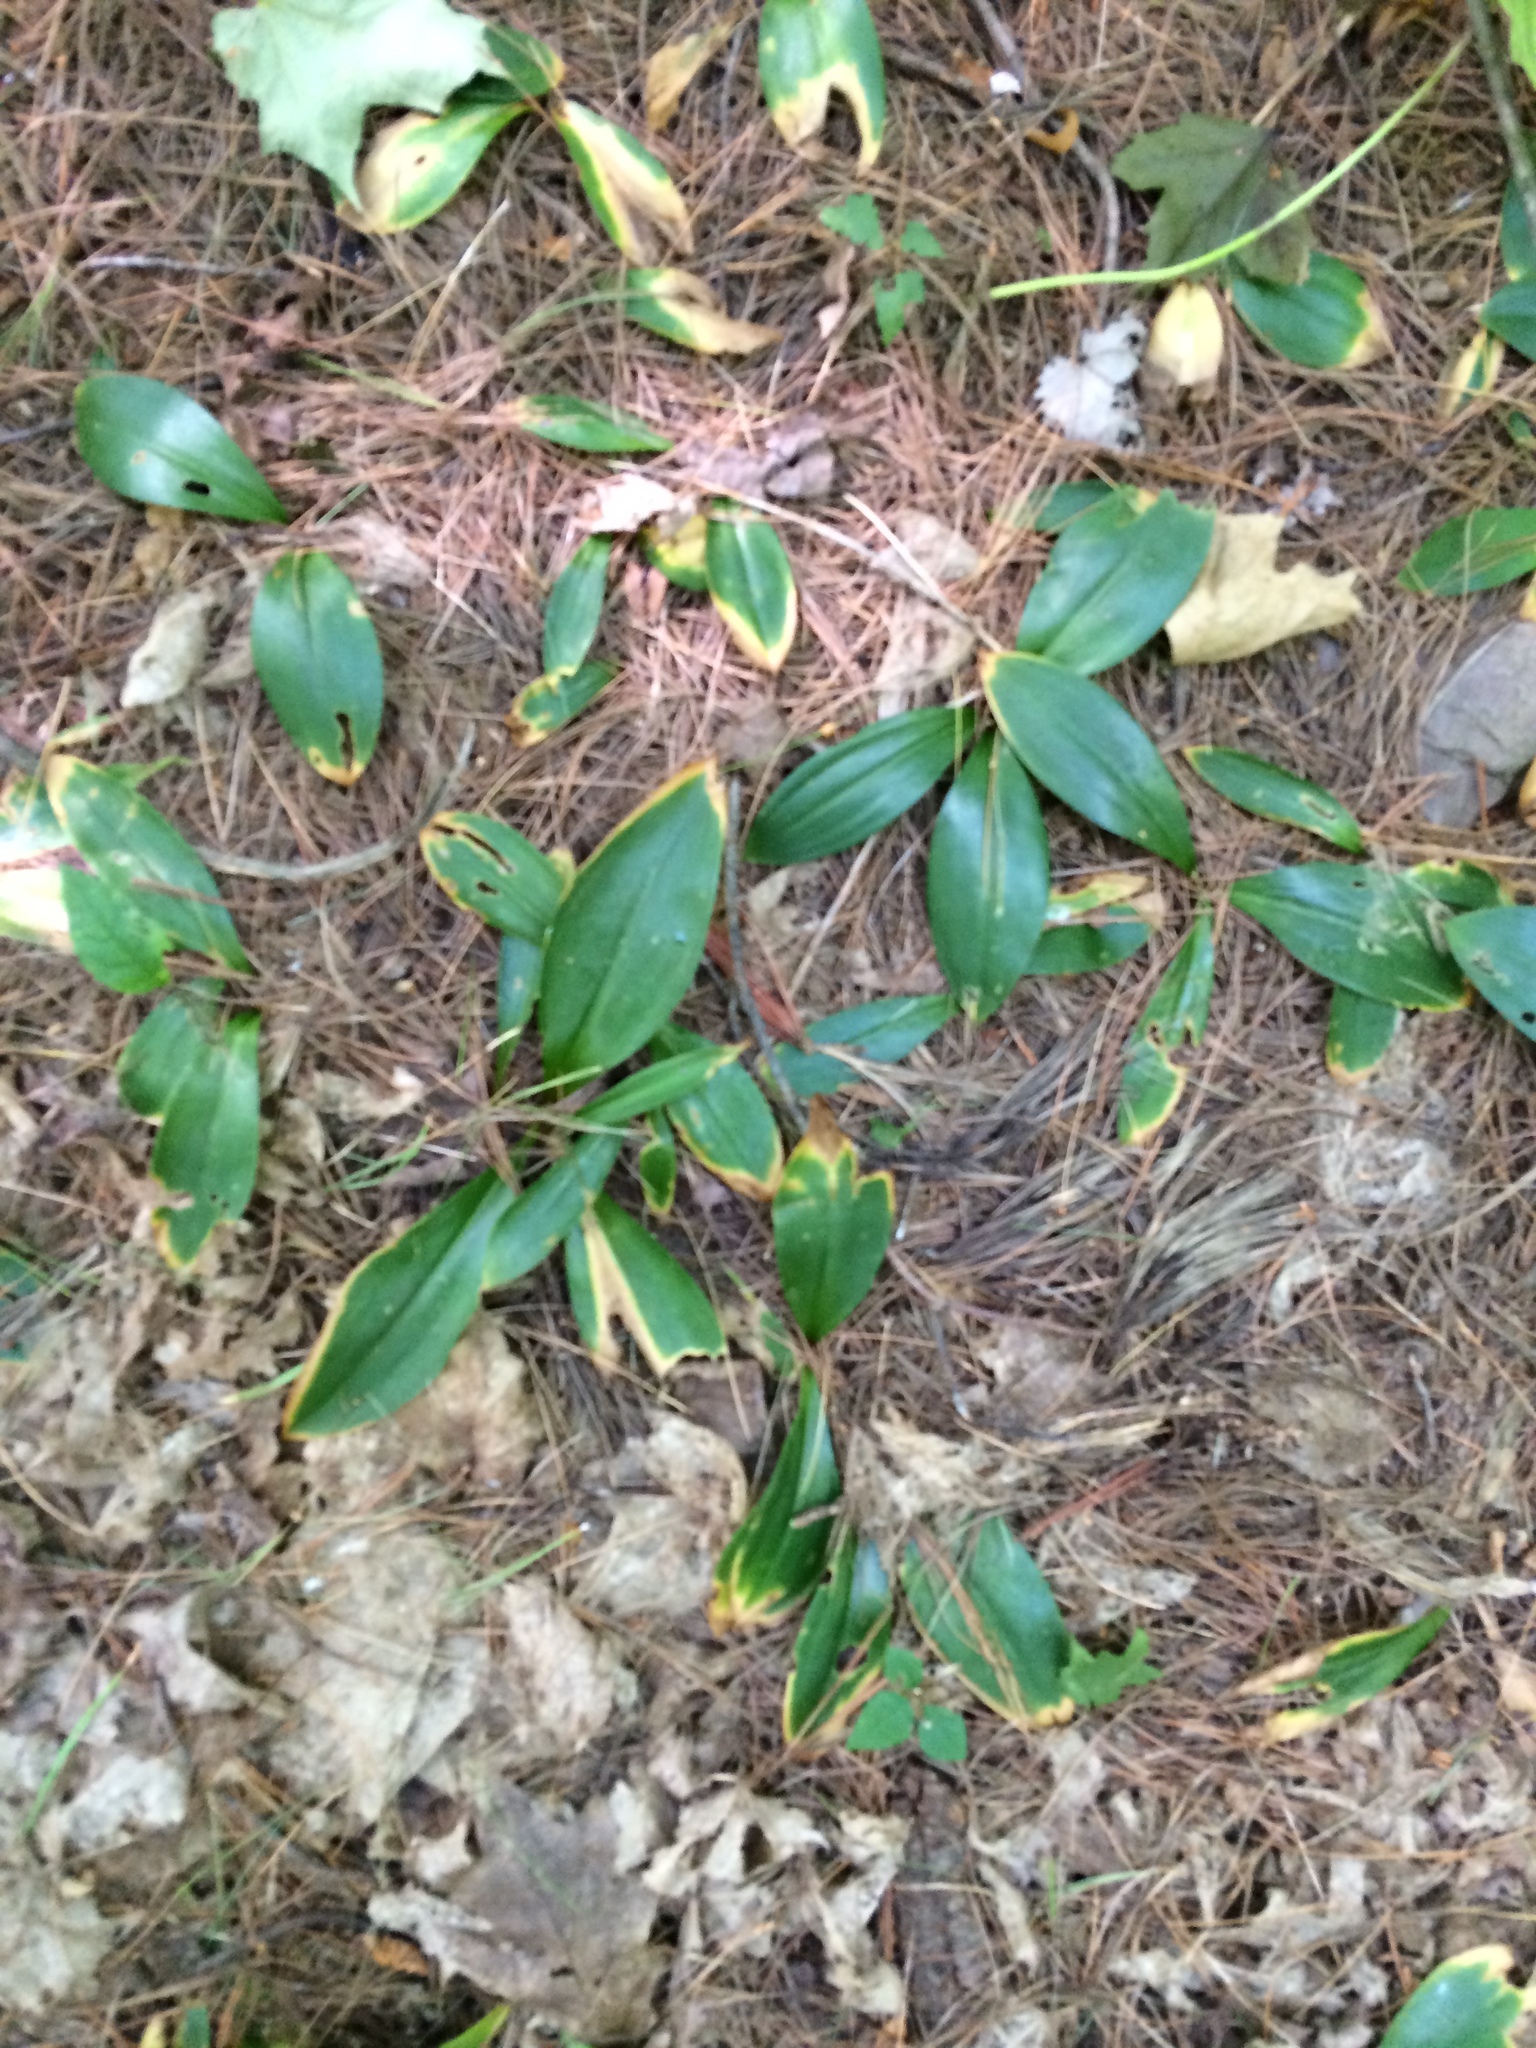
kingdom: Plantae
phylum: Tracheophyta
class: Liliopsida
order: Liliales
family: Liliaceae
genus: Clintonia
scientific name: Clintonia borealis
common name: Yellow clintonia
